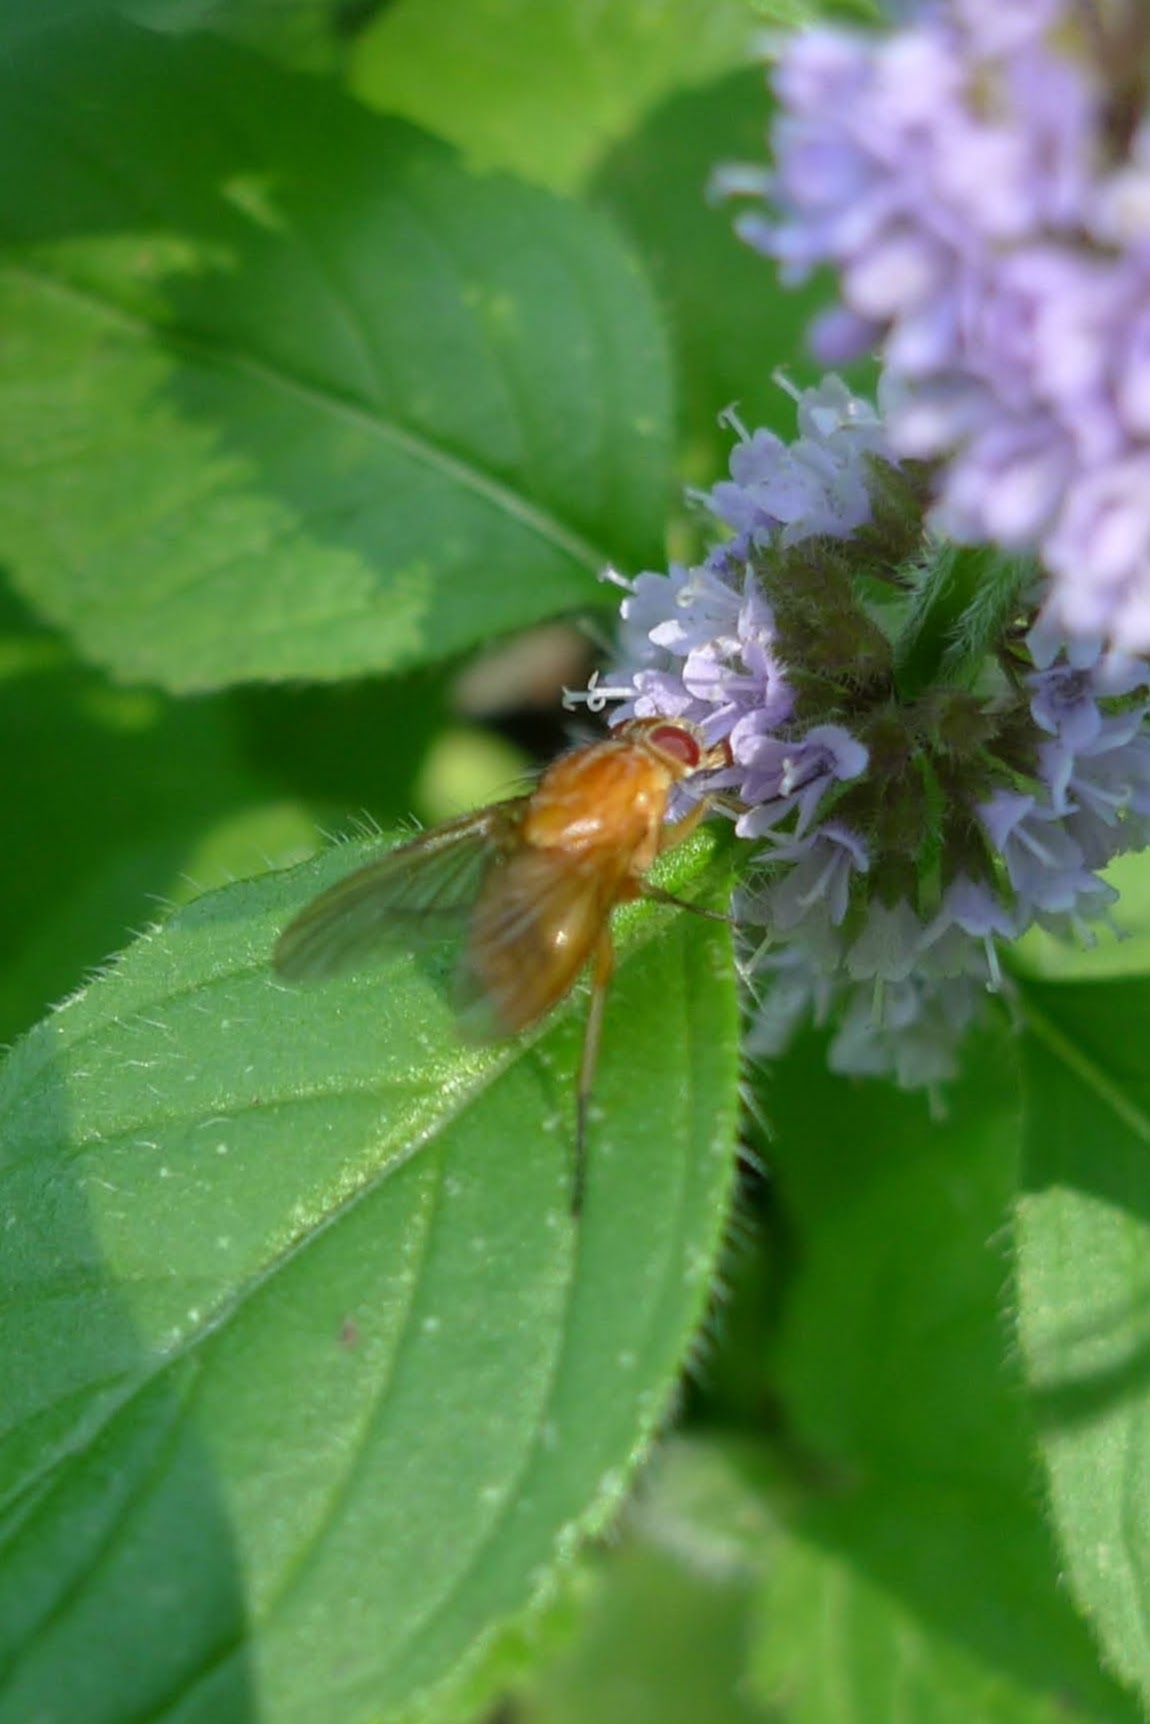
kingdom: Animalia
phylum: Arthropoda
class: Insecta
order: Diptera
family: Muscidae
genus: Phaonia
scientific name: Phaonia pallida
